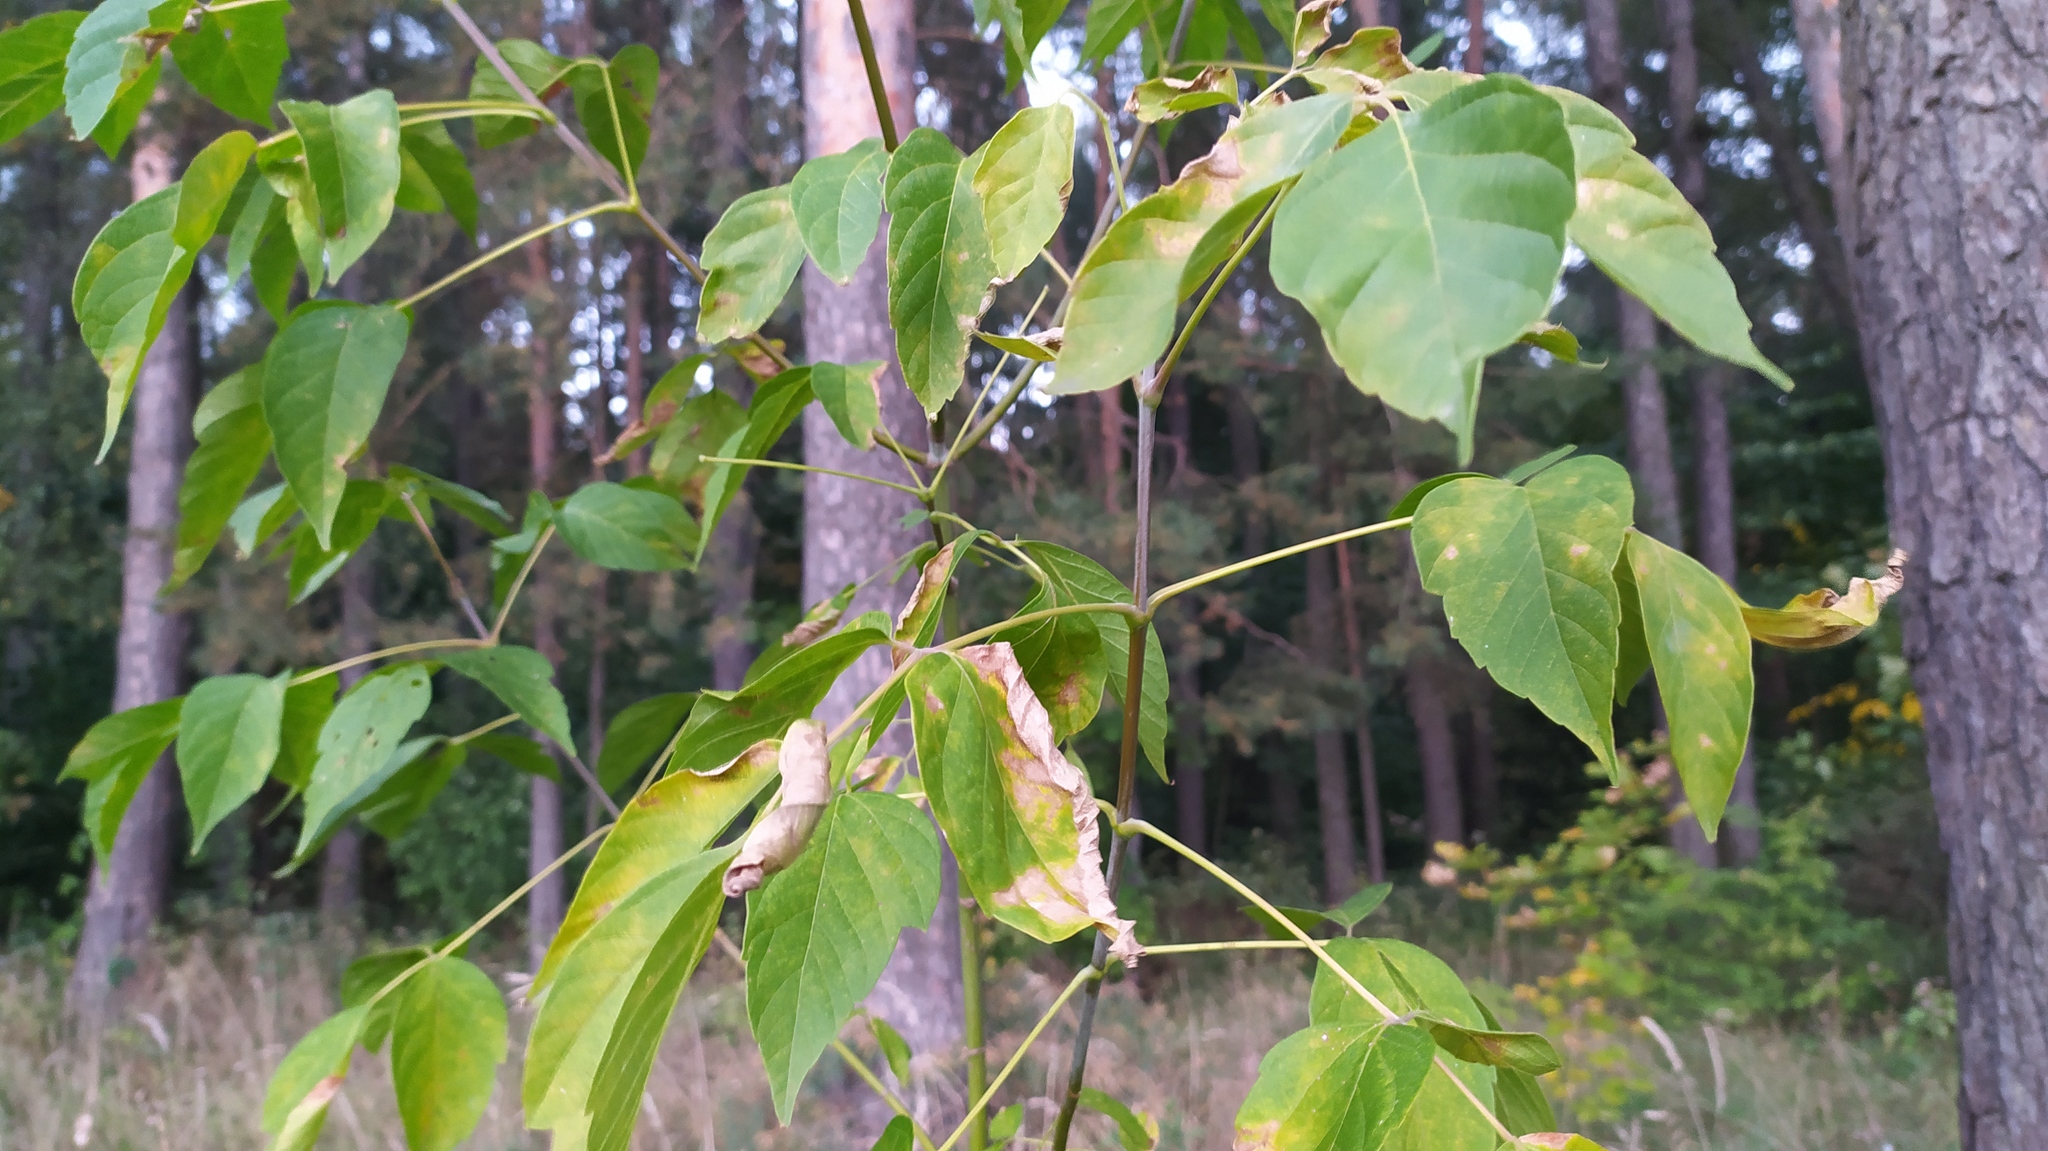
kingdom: Plantae
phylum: Tracheophyta
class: Magnoliopsida
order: Sapindales
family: Sapindaceae
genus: Acer
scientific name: Acer negundo
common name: Ashleaf maple
